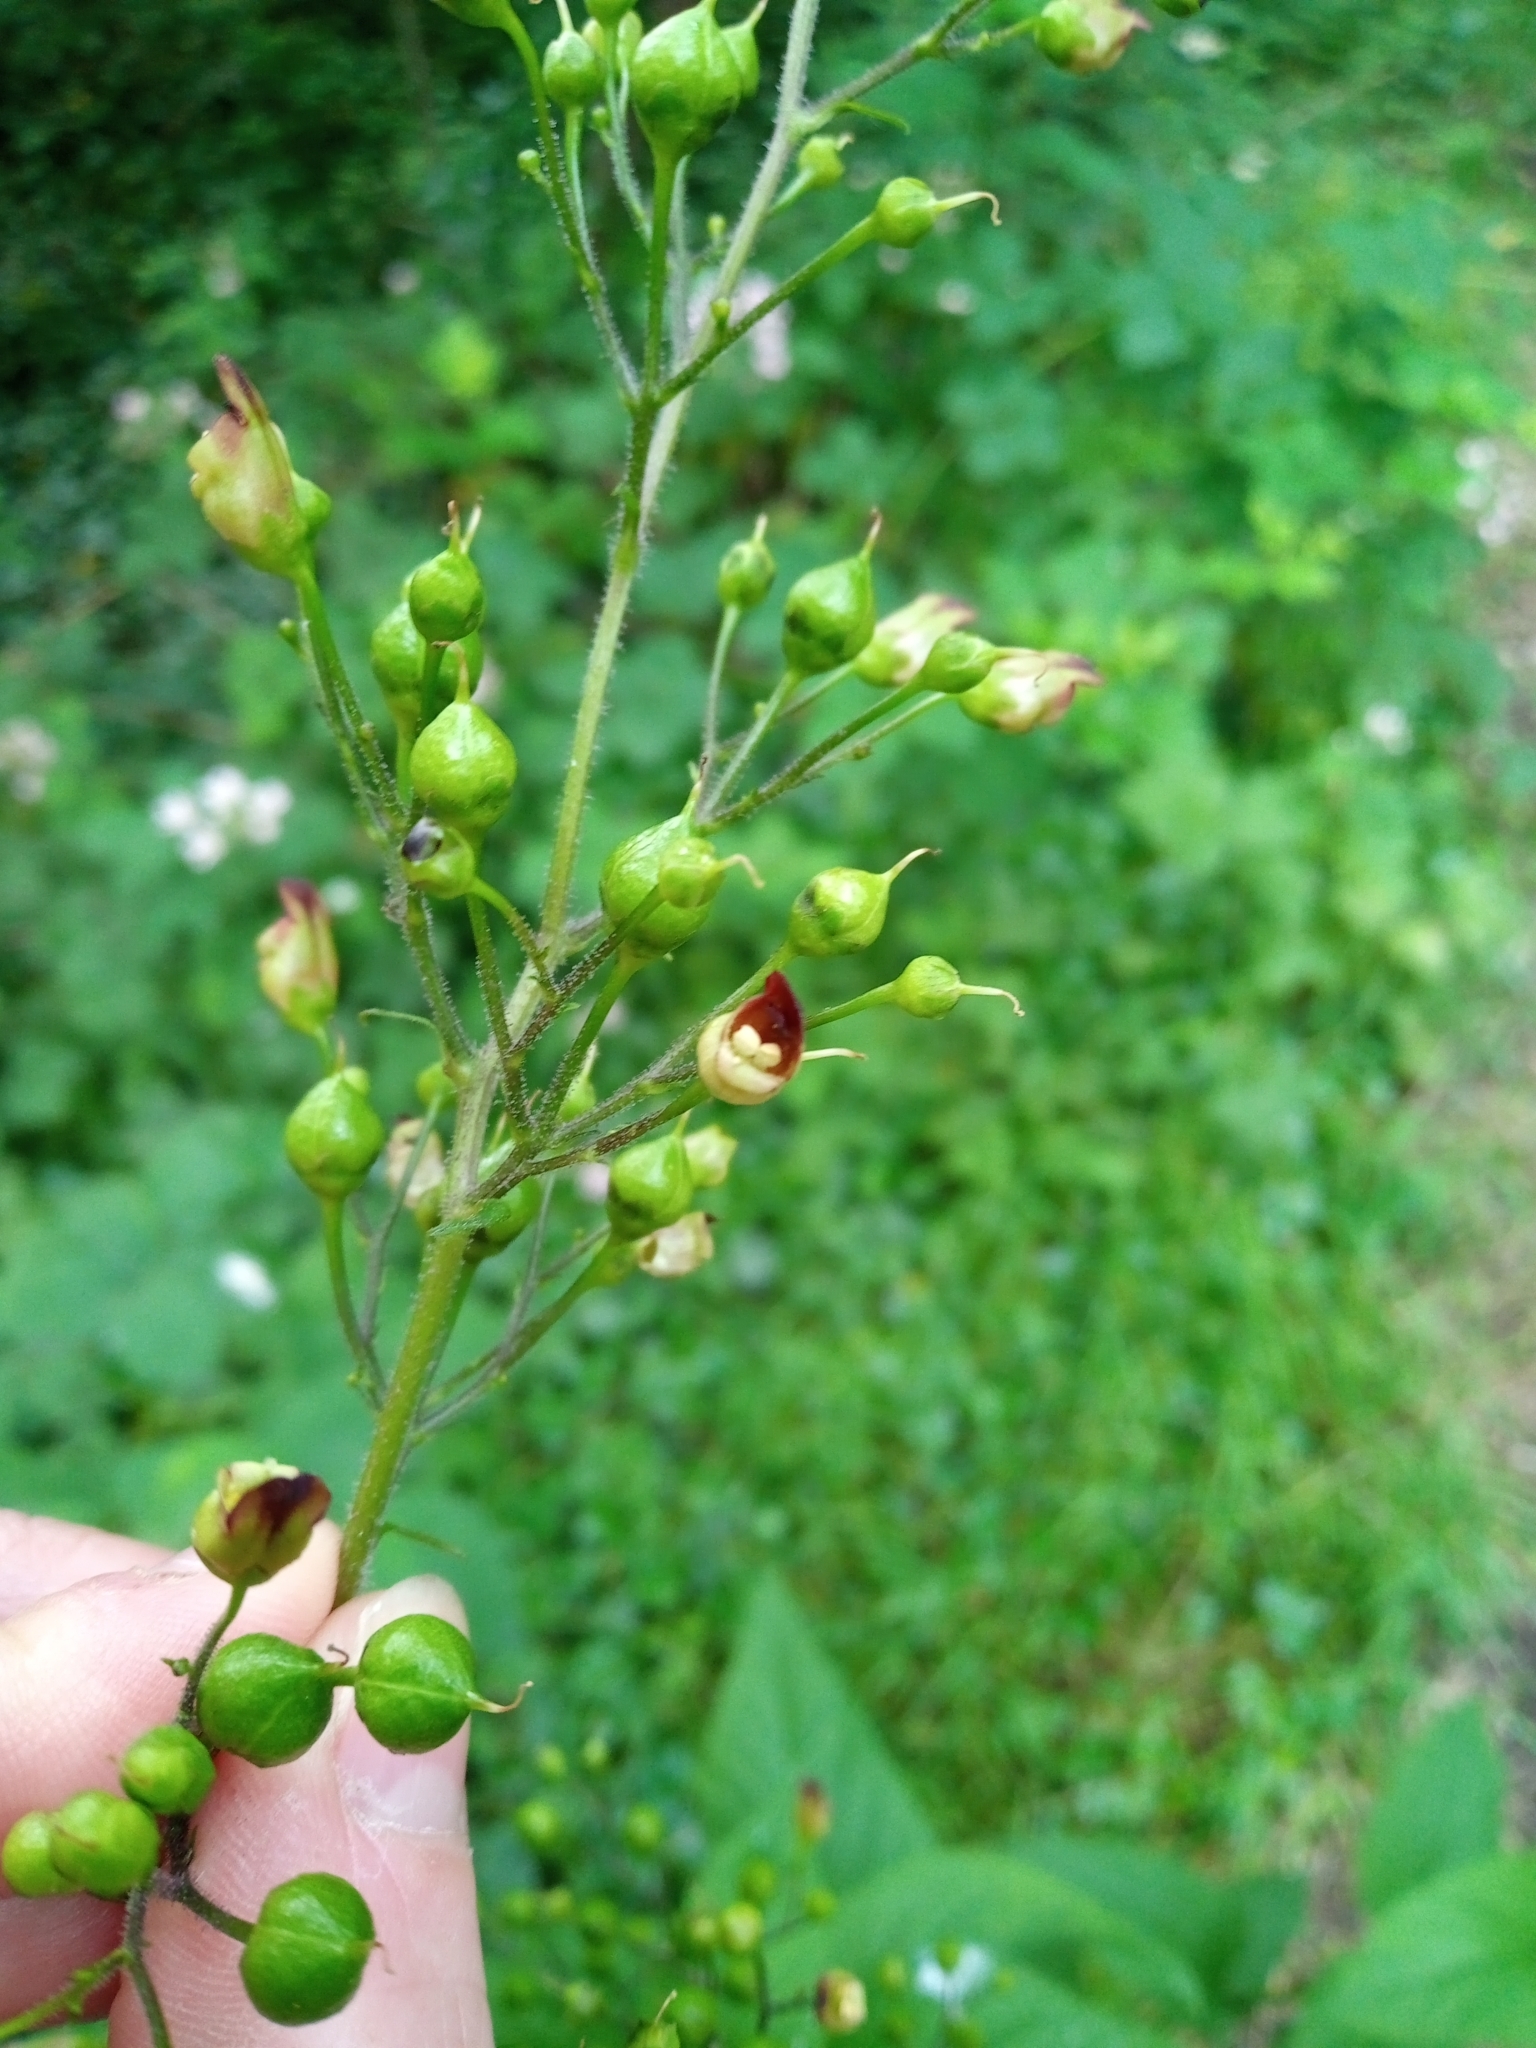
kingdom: Plantae
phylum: Tracheophyta
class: Magnoliopsida
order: Lamiales
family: Scrophulariaceae
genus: Scrophularia
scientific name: Scrophularia nodosa
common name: Common figwort
